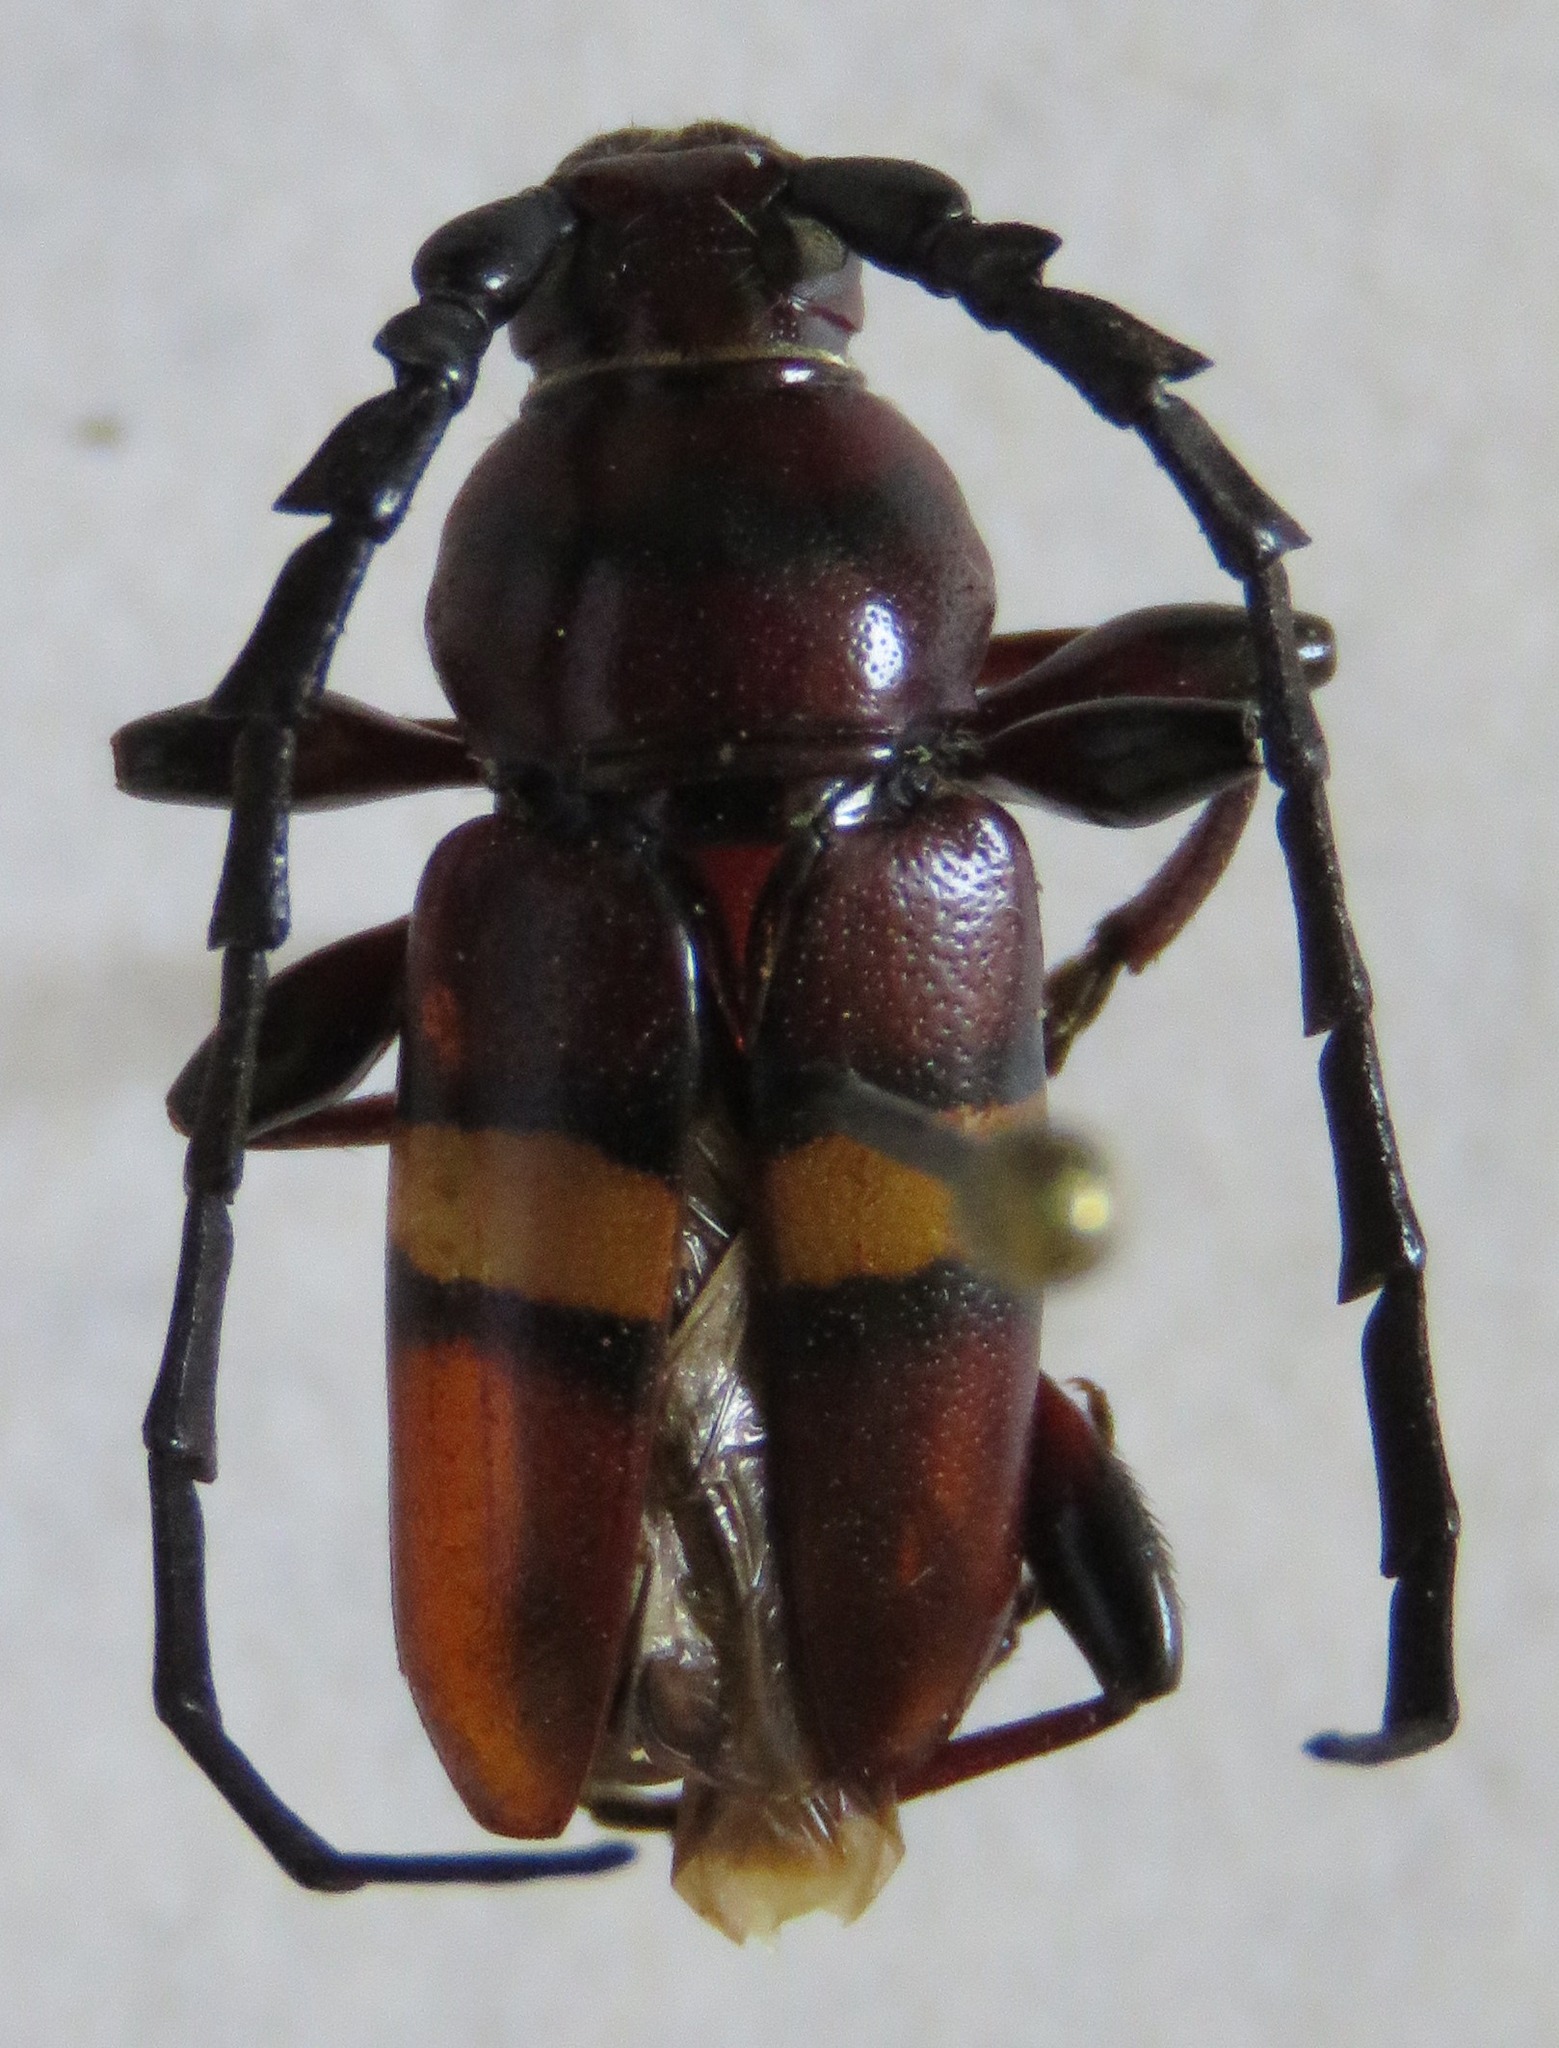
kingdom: Animalia
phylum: Arthropoda
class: Insecta
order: Coleoptera
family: Cerambycidae
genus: Lissonotus
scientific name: Lissonotus flavocinctus
